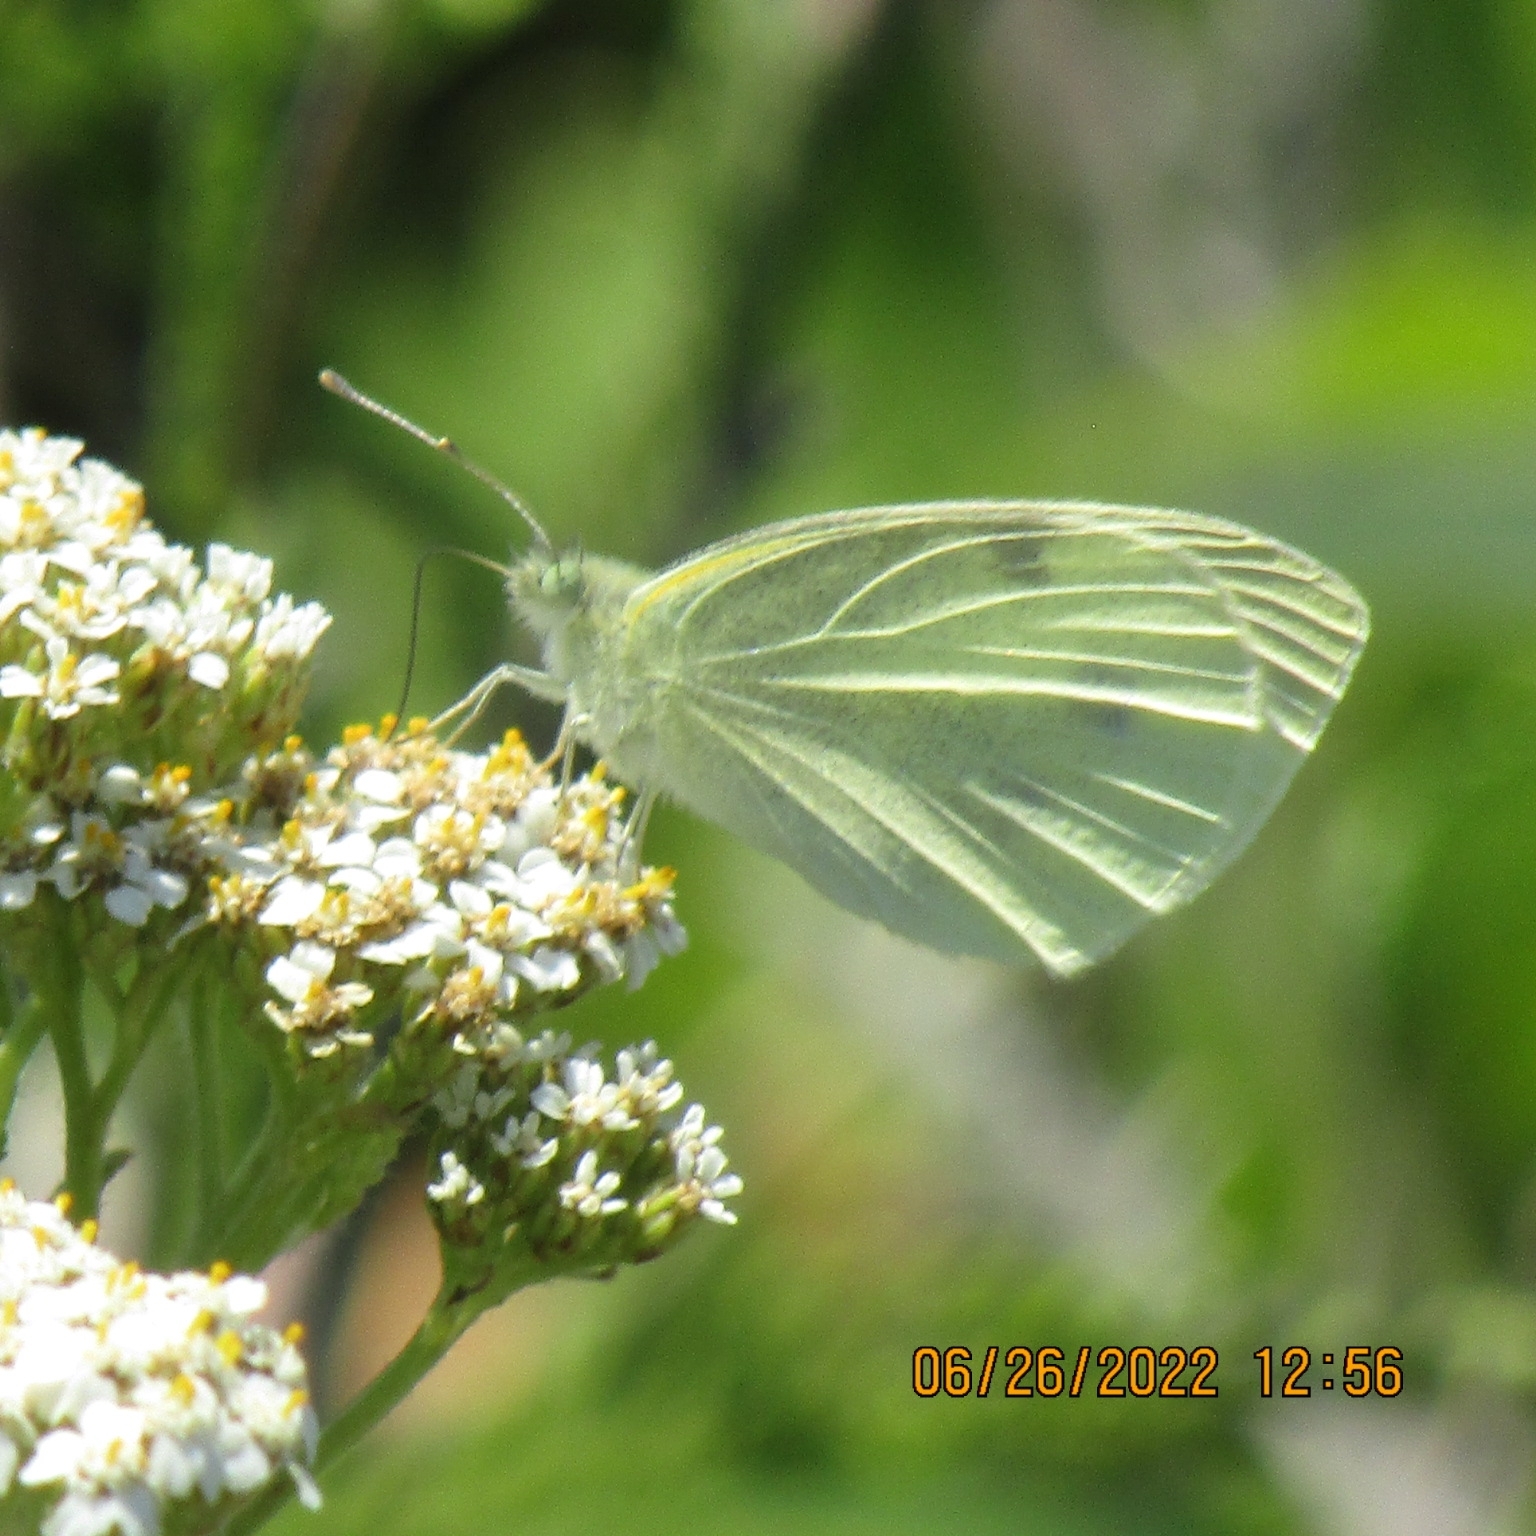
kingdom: Animalia
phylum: Arthropoda
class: Insecta
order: Lepidoptera
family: Pieridae
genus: Pieris
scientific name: Pieris rapae
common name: Small white
